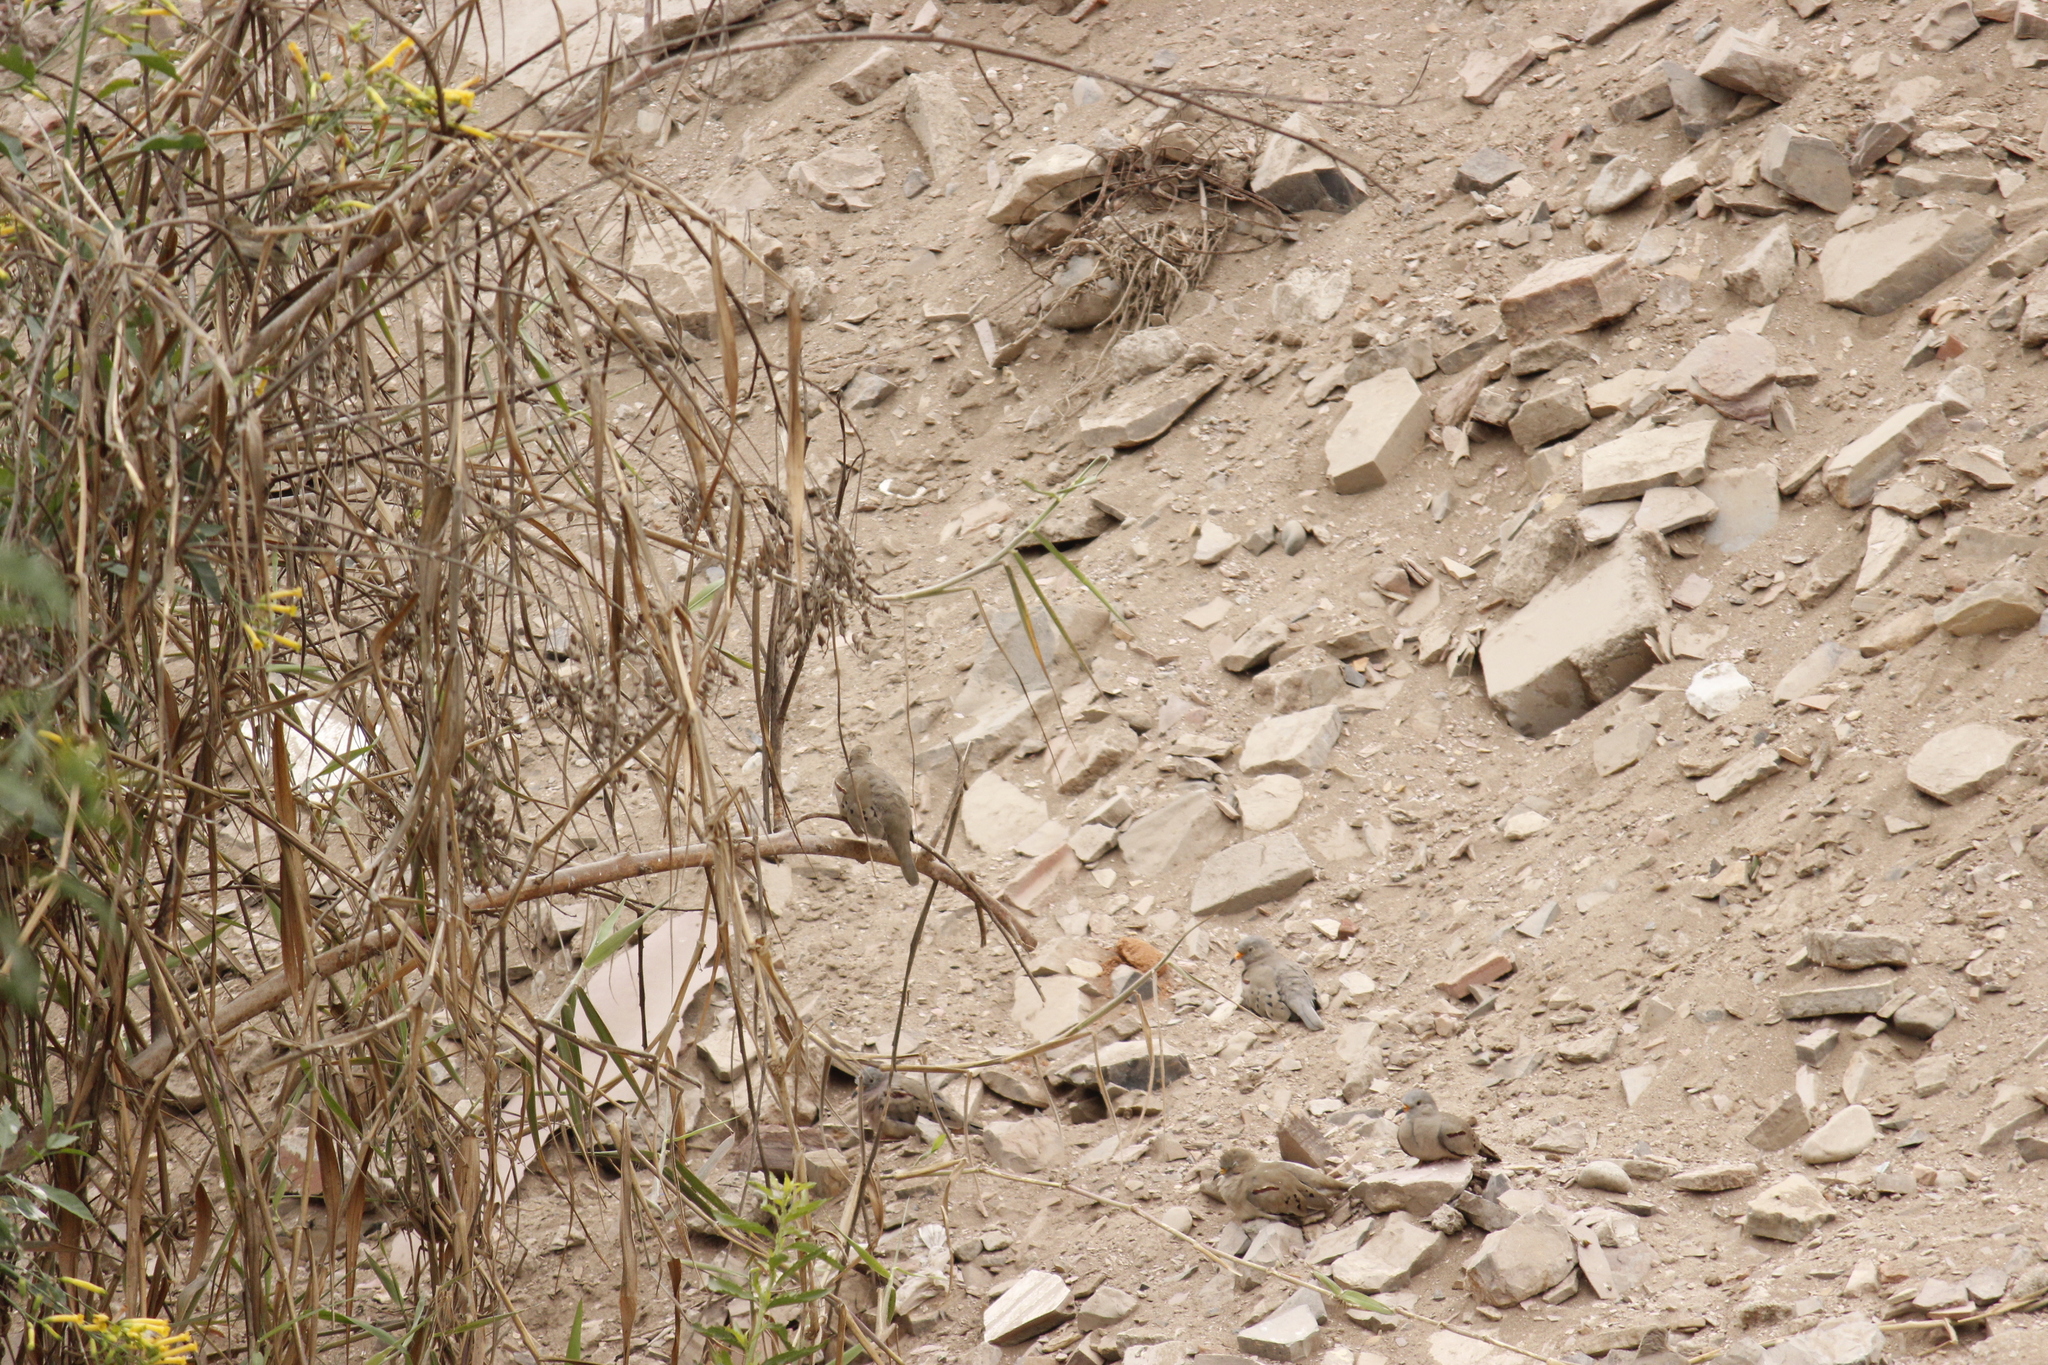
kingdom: Animalia
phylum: Chordata
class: Aves
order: Columbiformes
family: Columbidae
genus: Columbina
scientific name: Columbina cruziana
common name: Croaking ground dove
